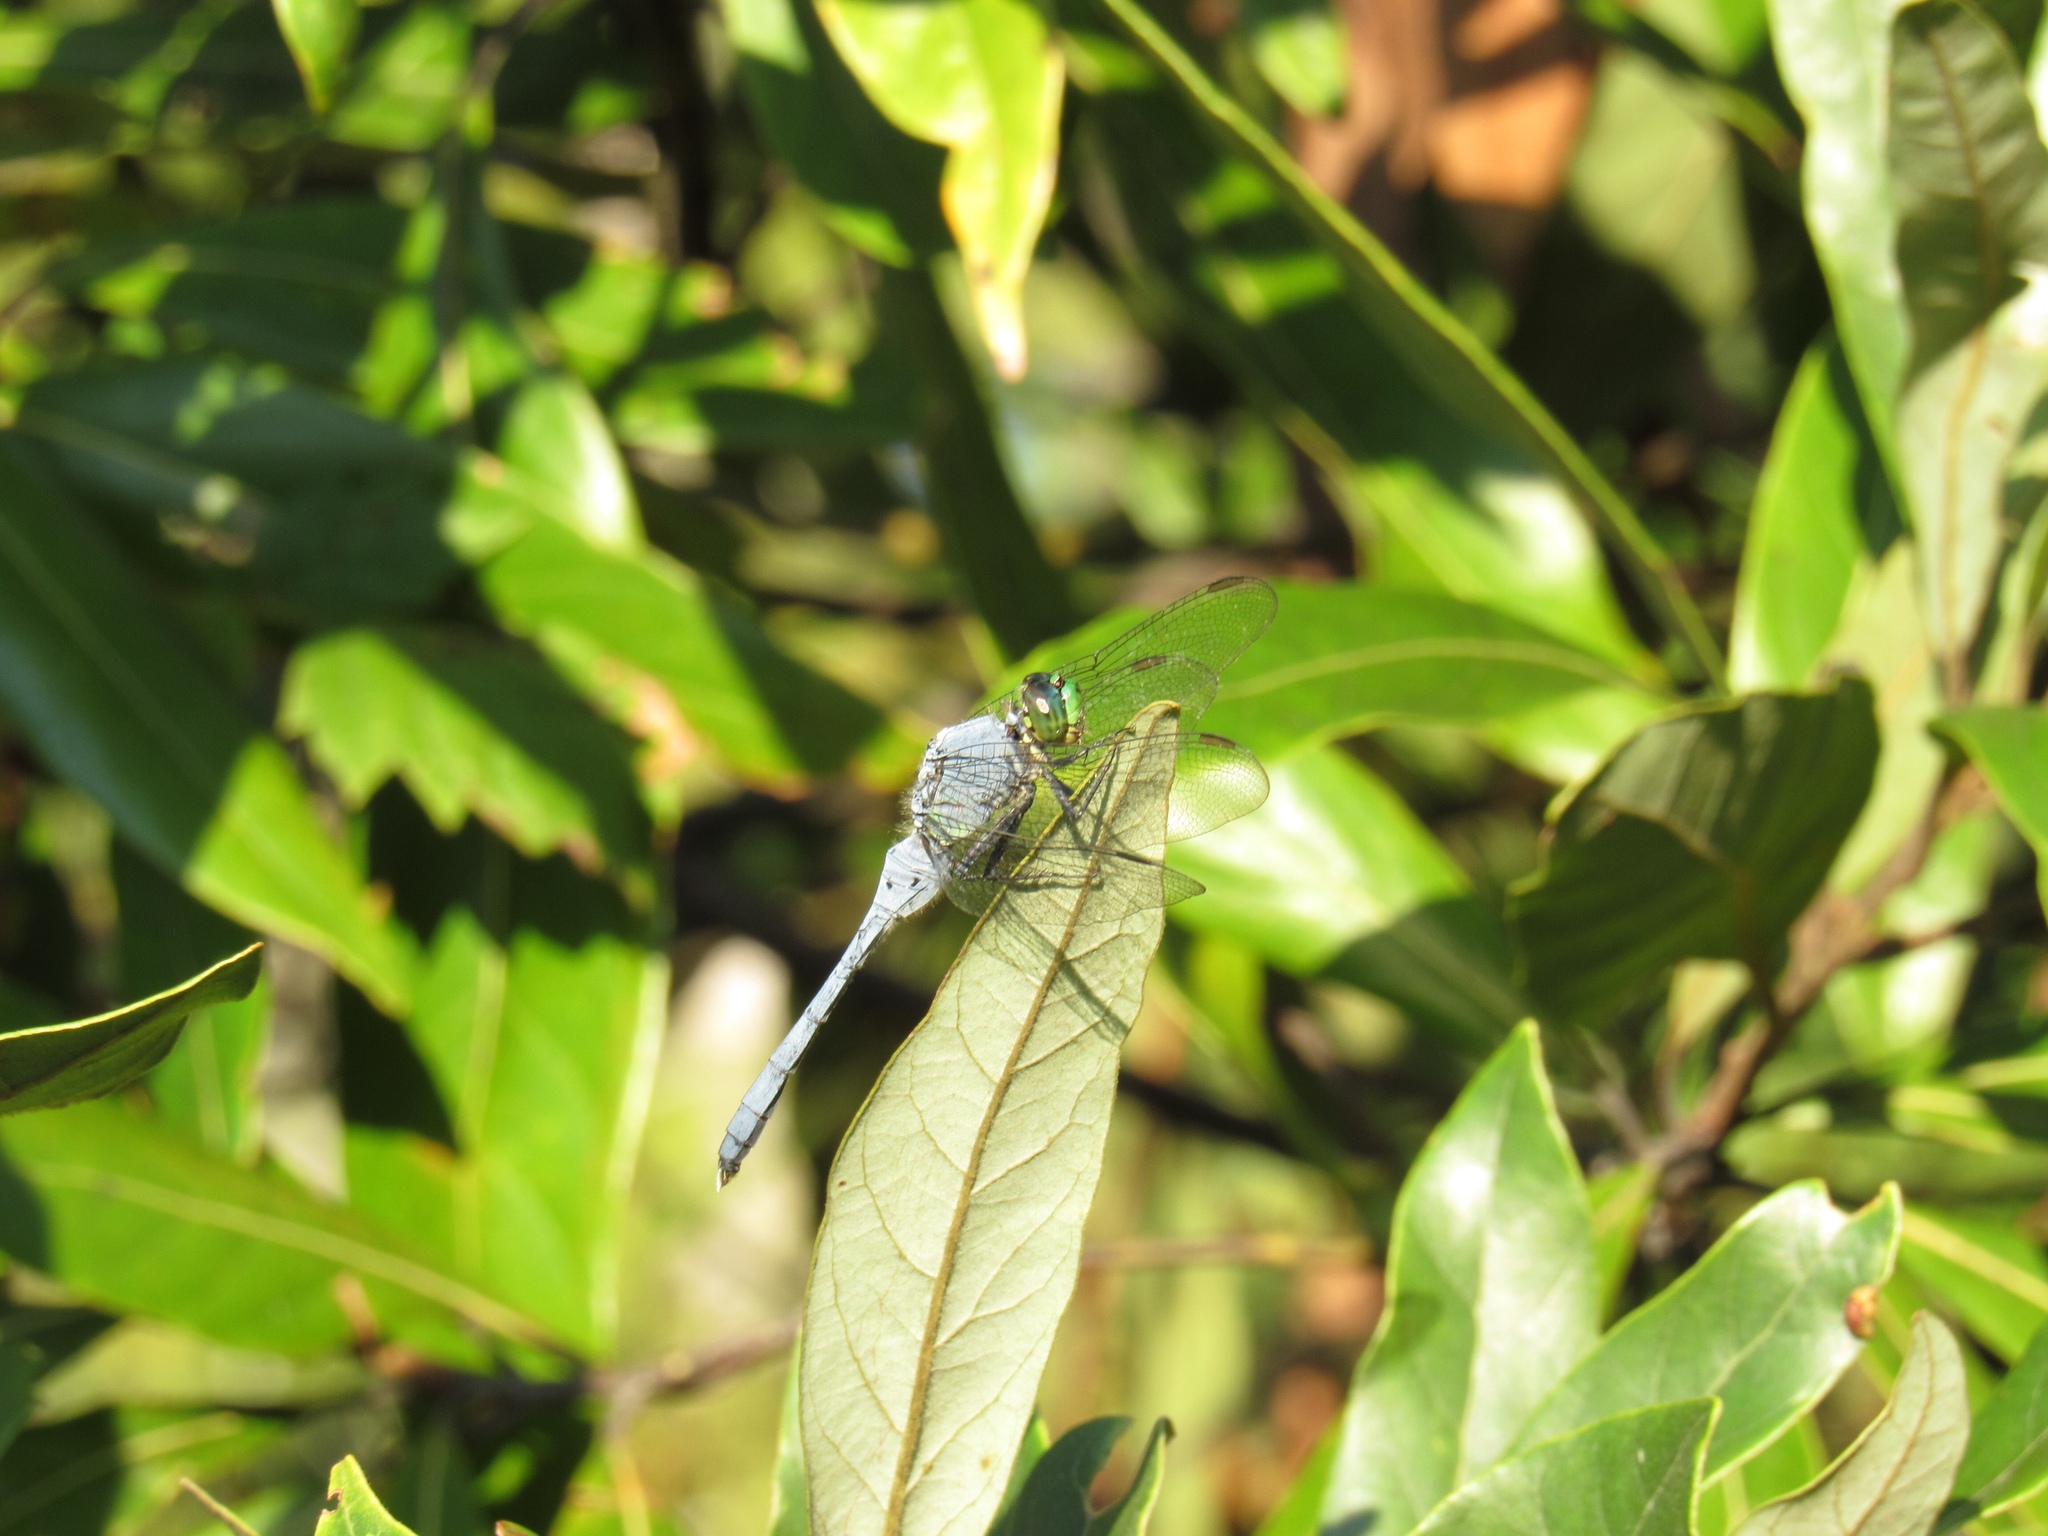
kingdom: Animalia
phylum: Arthropoda
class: Insecta
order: Odonata
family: Libellulidae
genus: Erythemis
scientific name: Erythemis simplicicollis
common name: Eastern pondhawk
